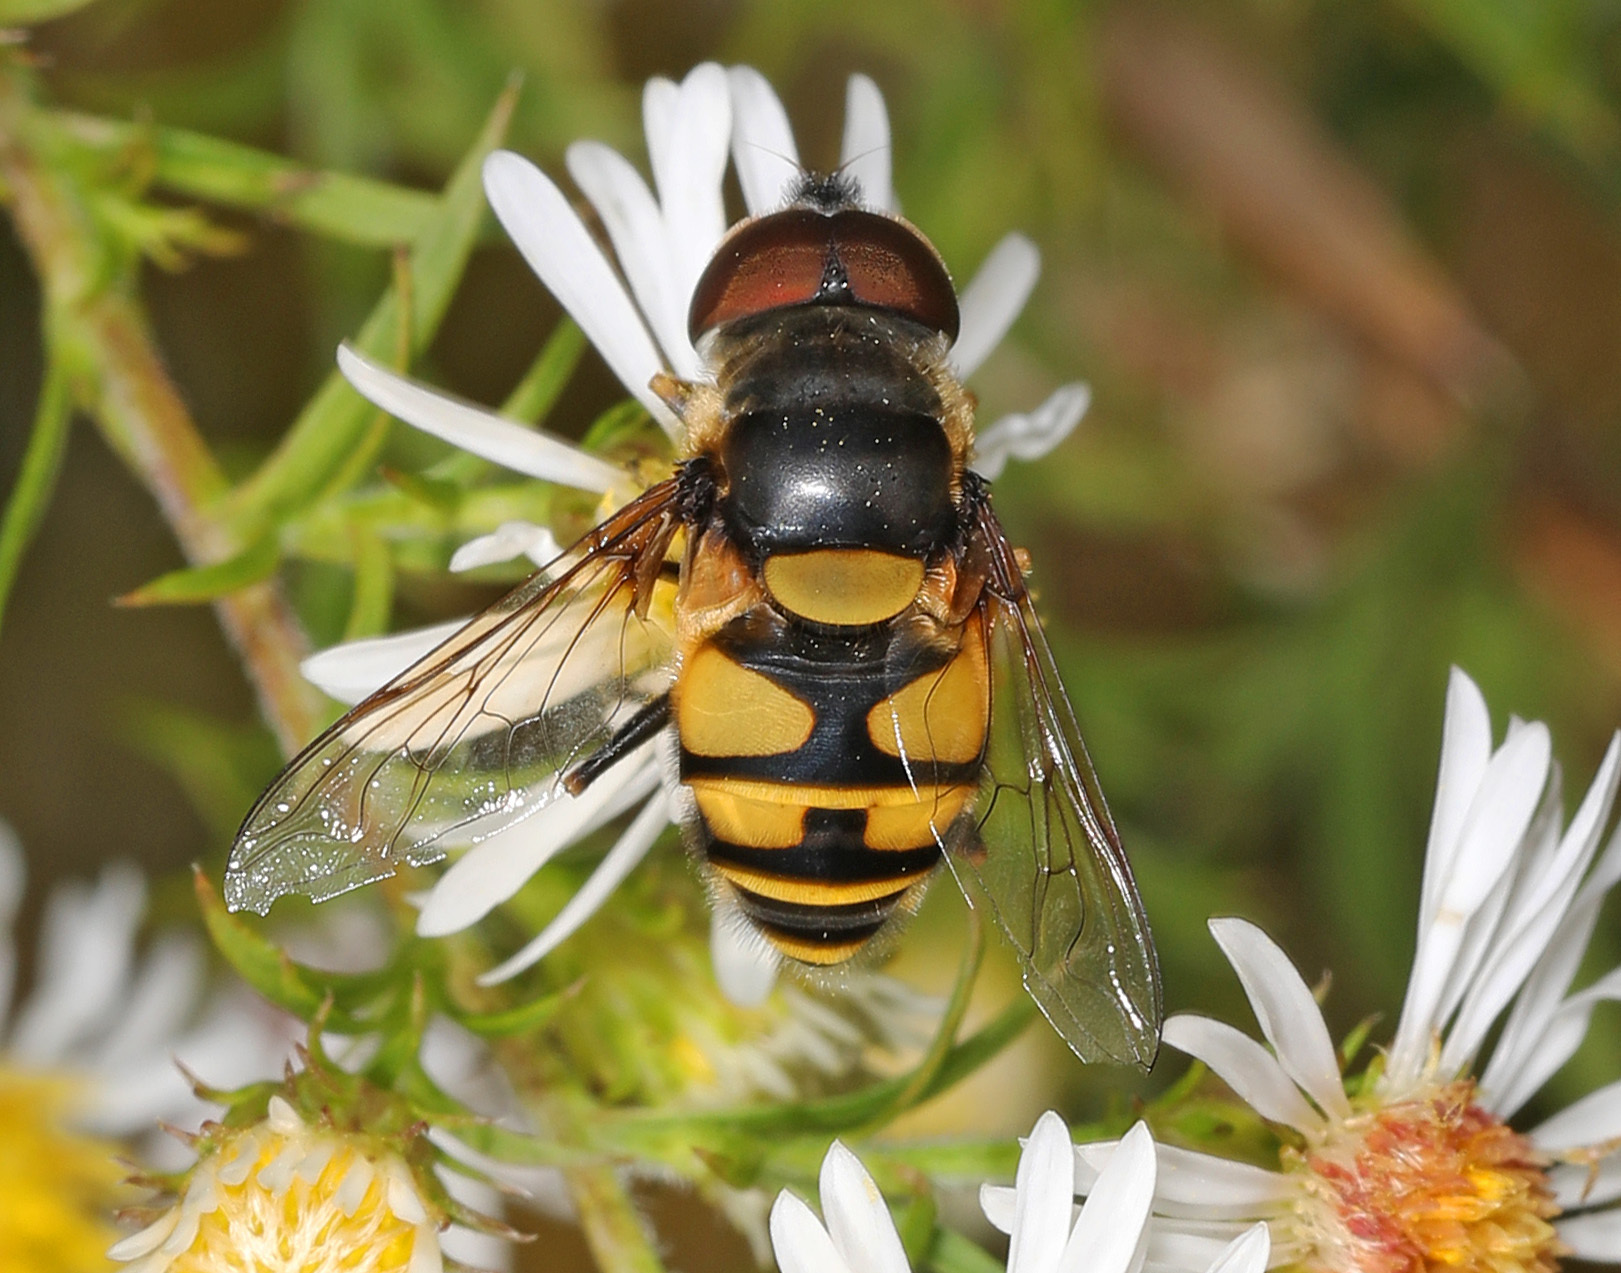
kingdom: Animalia
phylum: Arthropoda
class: Insecta
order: Diptera
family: Syrphidae
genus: Eristalis
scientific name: Eristalis transversa
